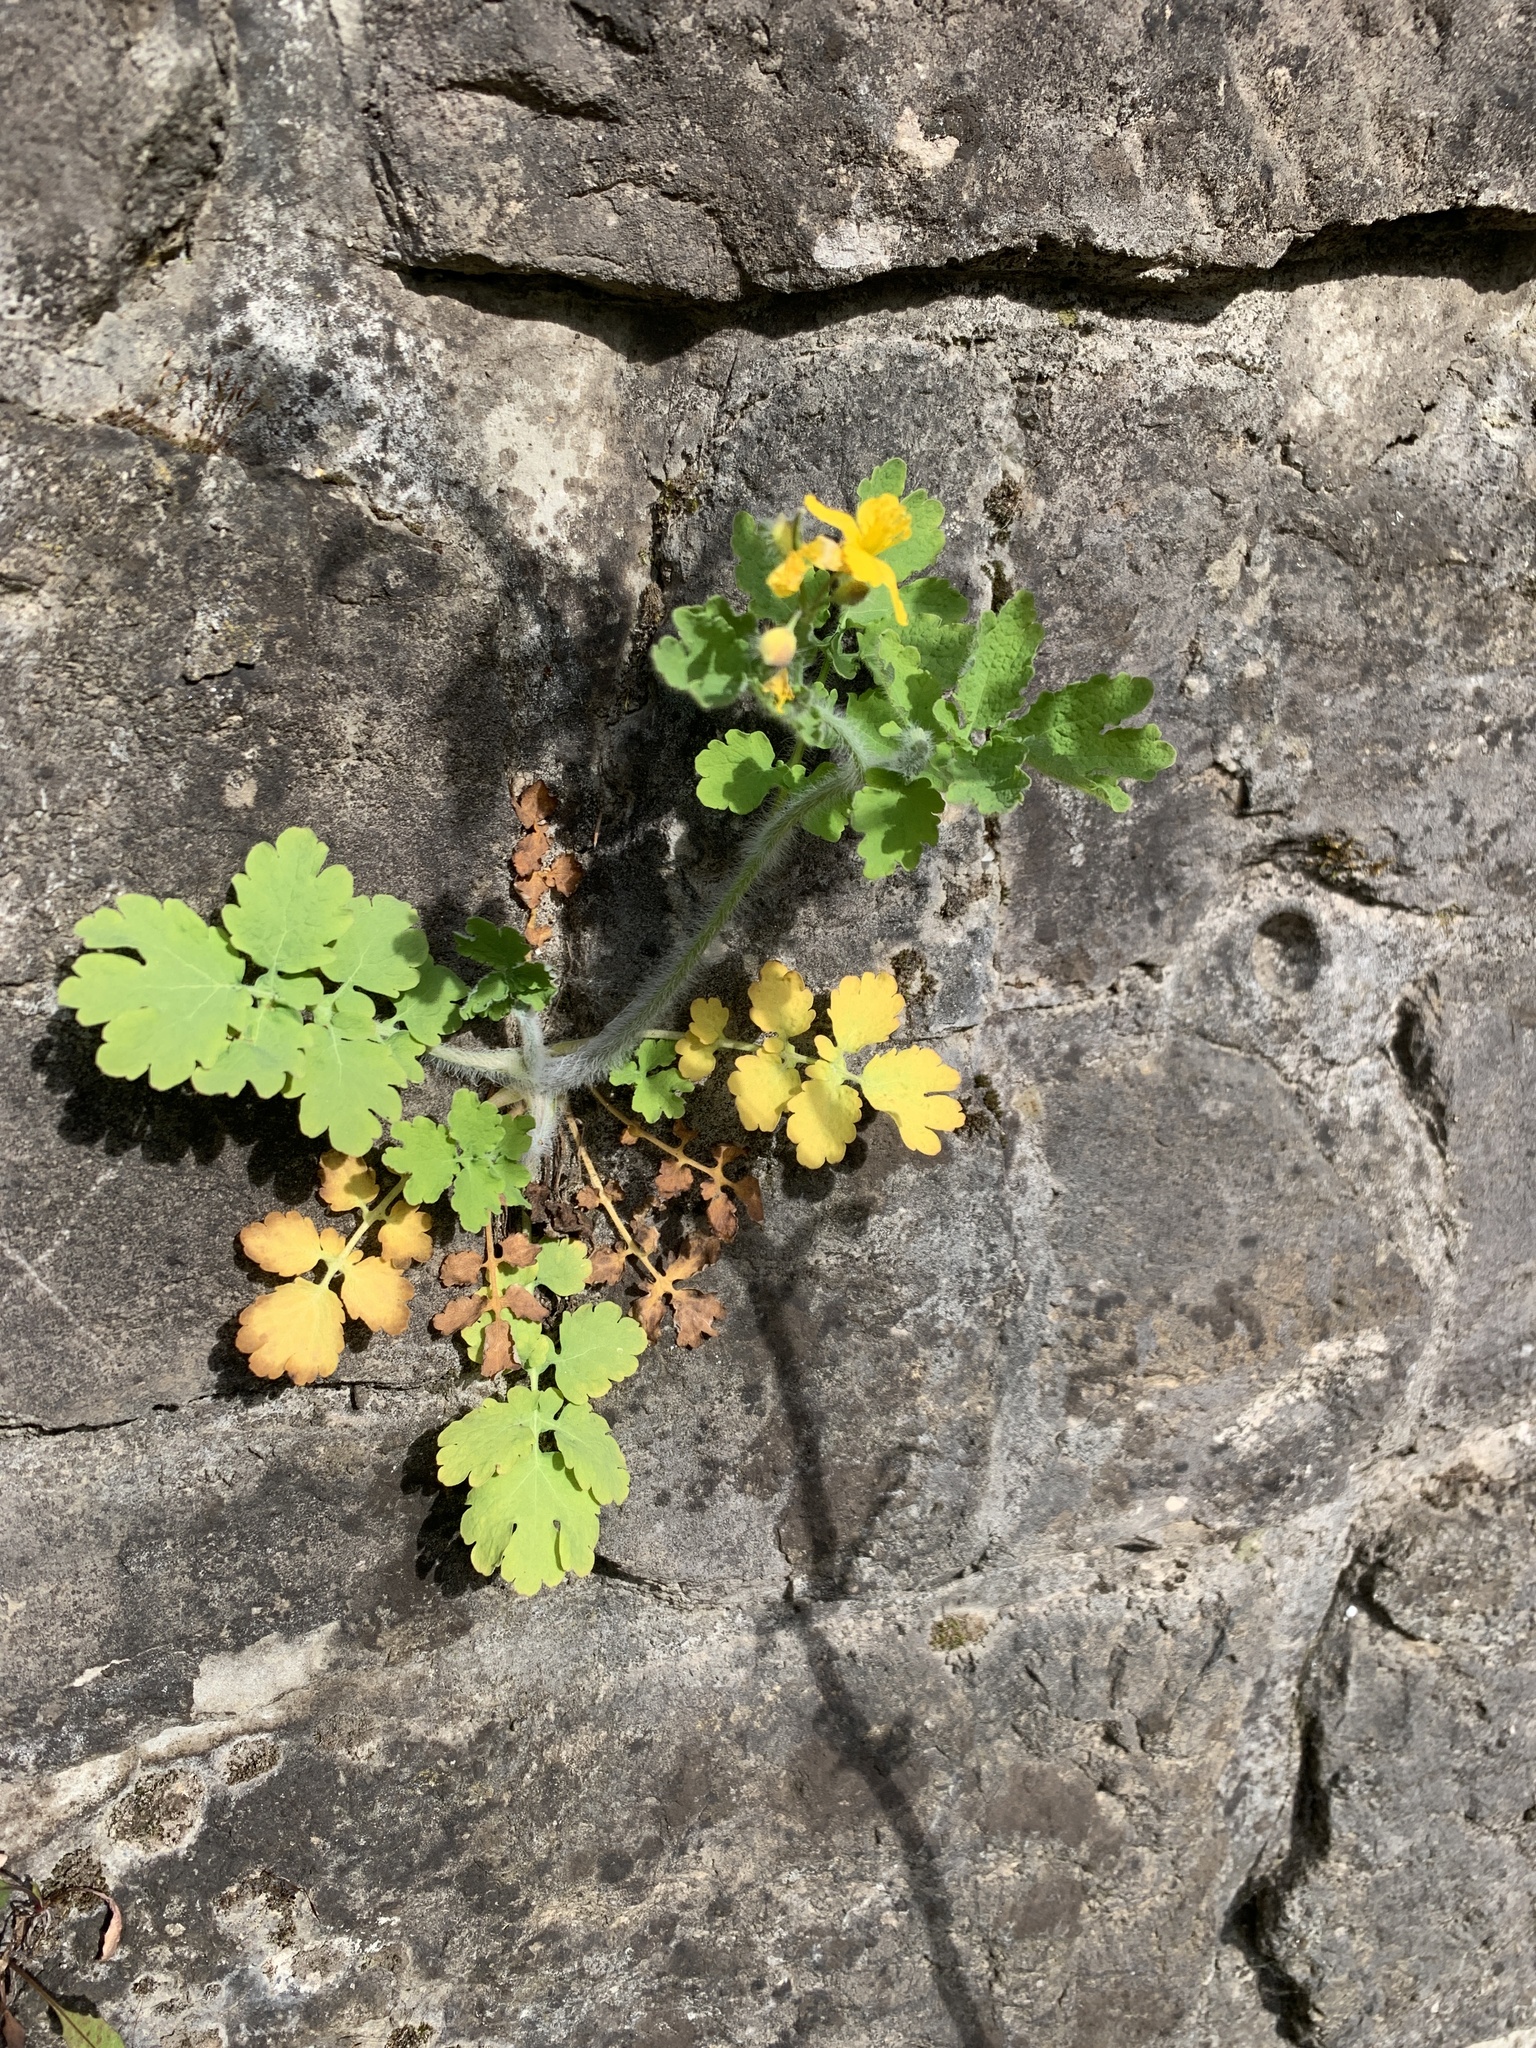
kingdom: Plantae
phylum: Tracheophyta
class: Magnoliopsida
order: Ranunculales
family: Papaveraceae
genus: Chelidonium
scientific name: Chelidonium majus
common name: Greater celandine
